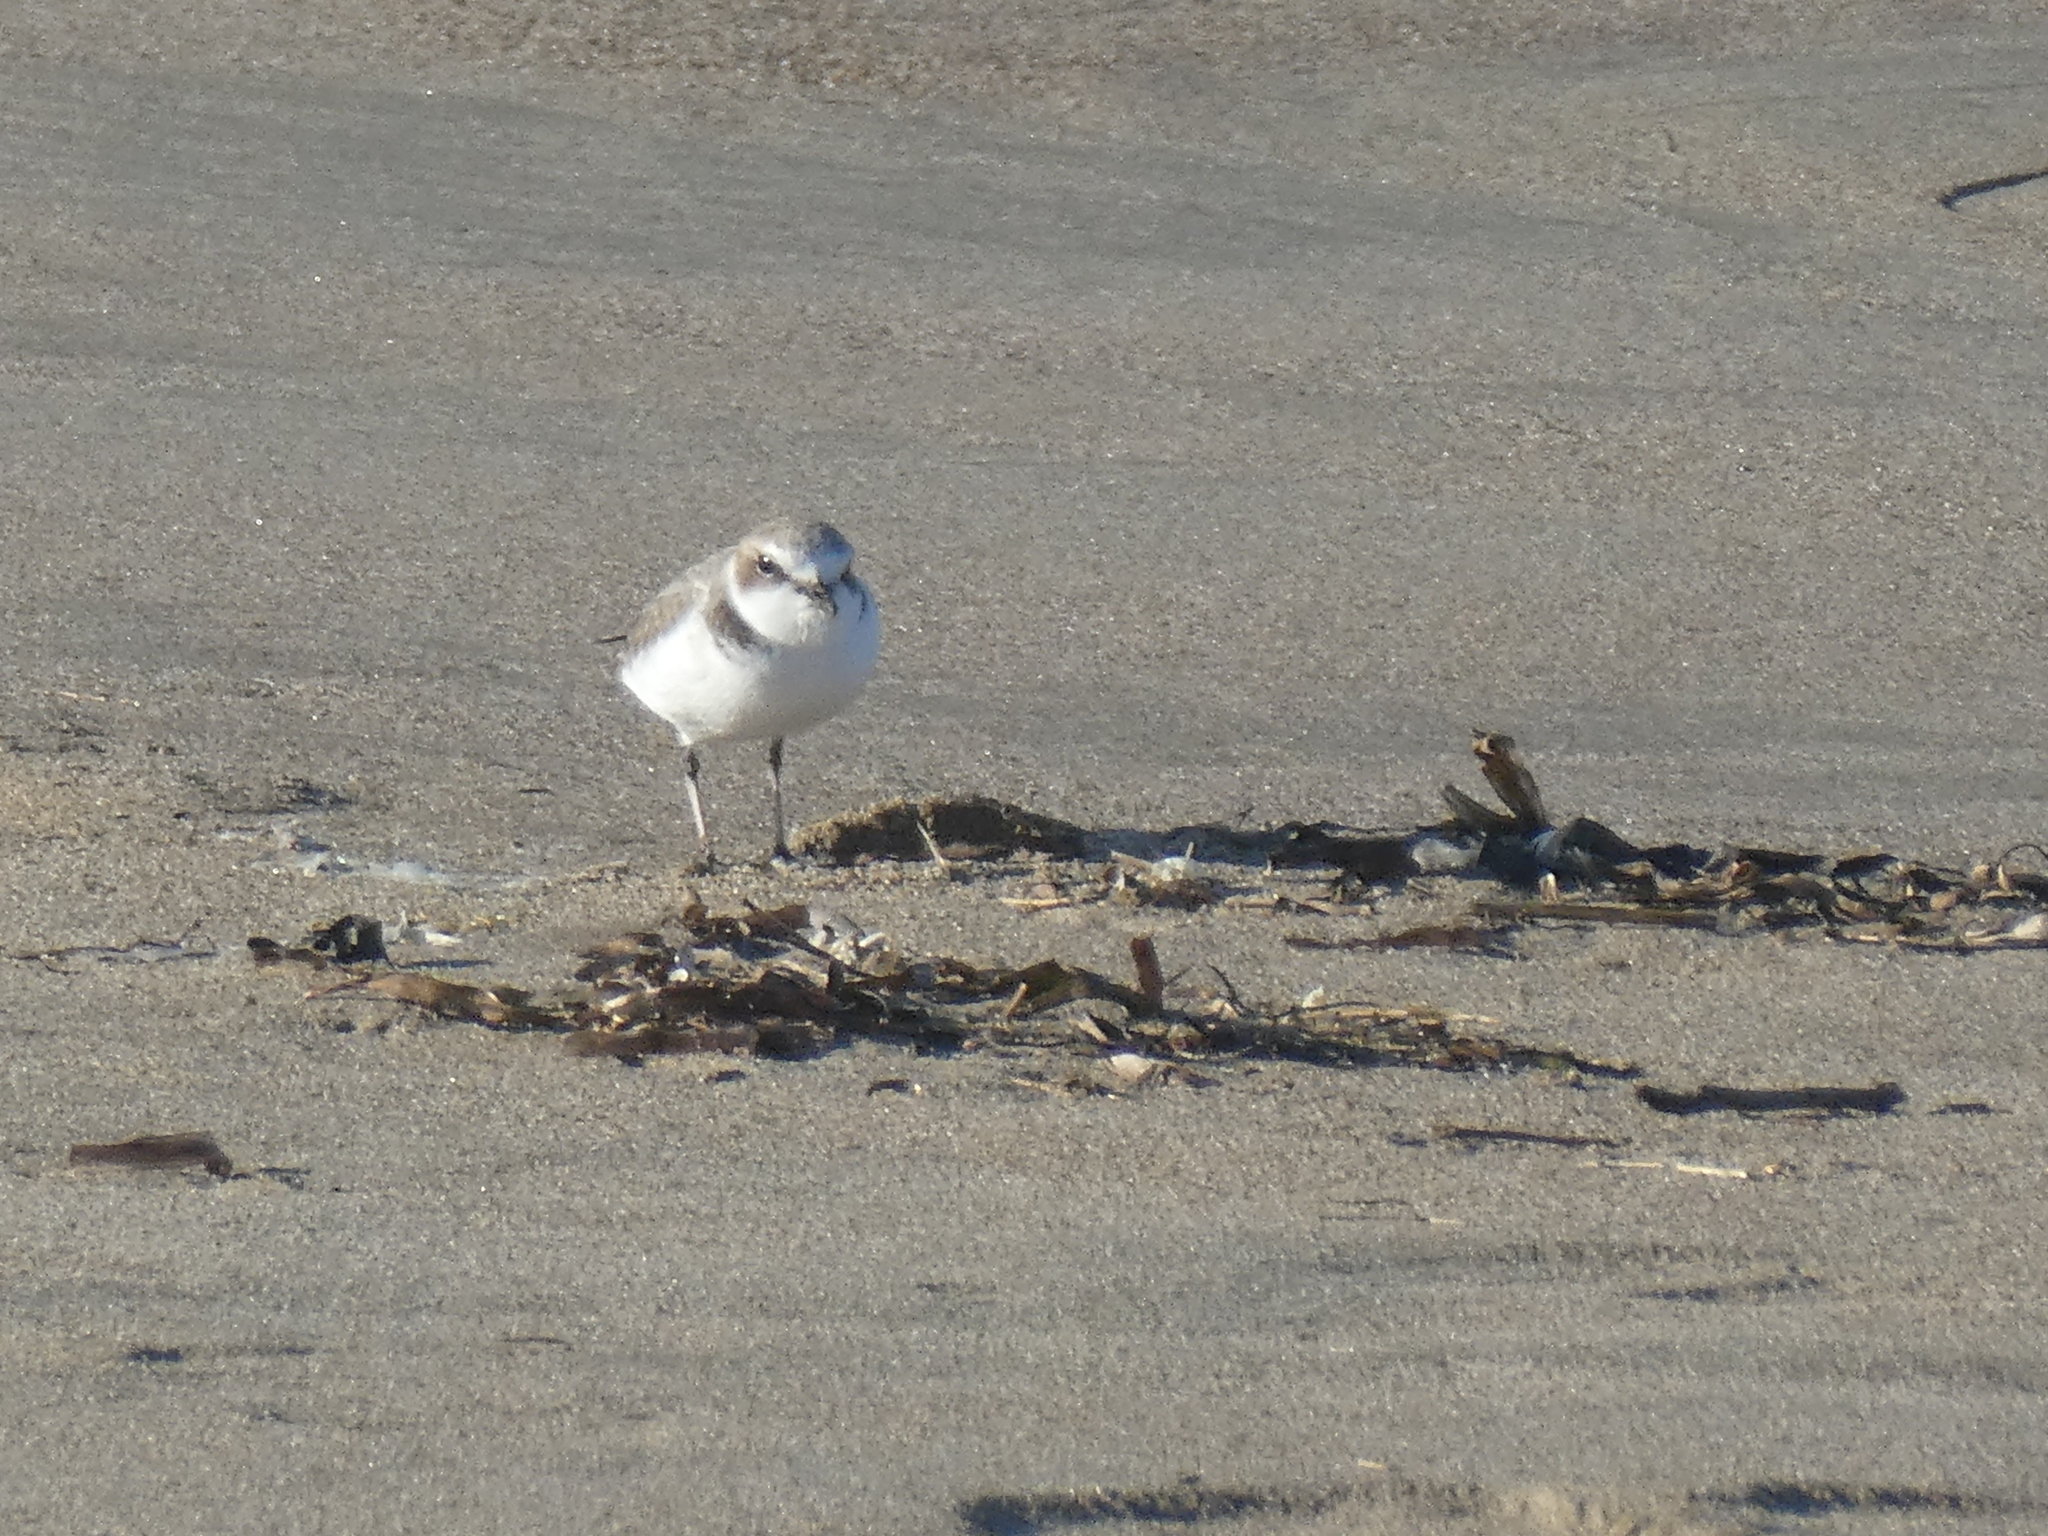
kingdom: Animalia
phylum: Chordata
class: Aves
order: Charadriiformes
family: Charadriidae
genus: Anarhynchus
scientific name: Anarhynchus
